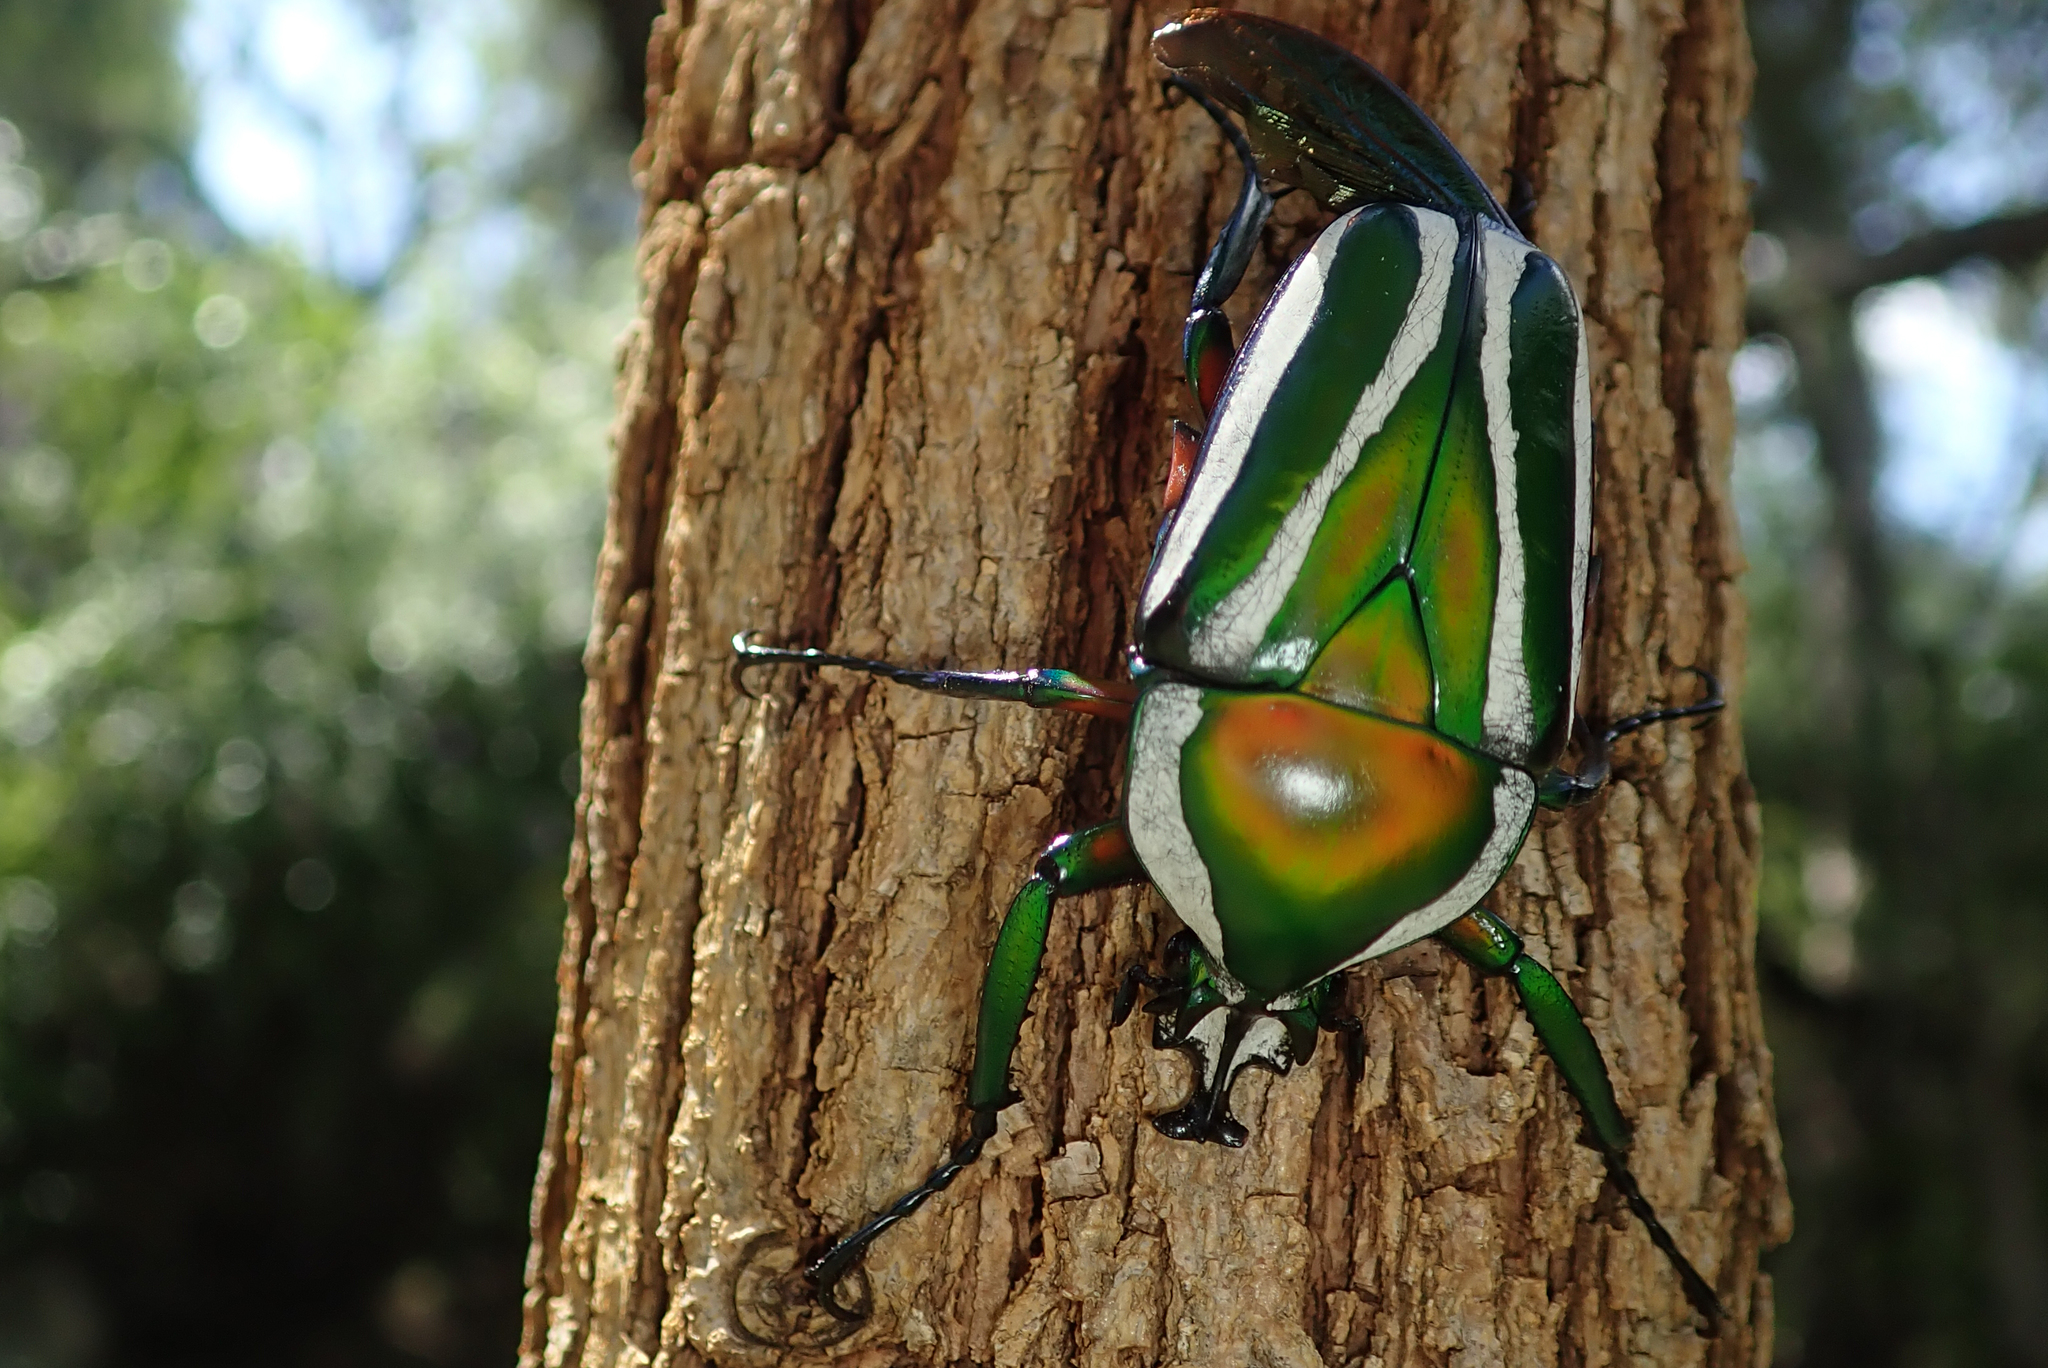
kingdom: Animalia
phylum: Arthropoda
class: Insecta
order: Coleoptera
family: Scarabaeidae
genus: Dicronorhina
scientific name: Dicronorhina derbyana
